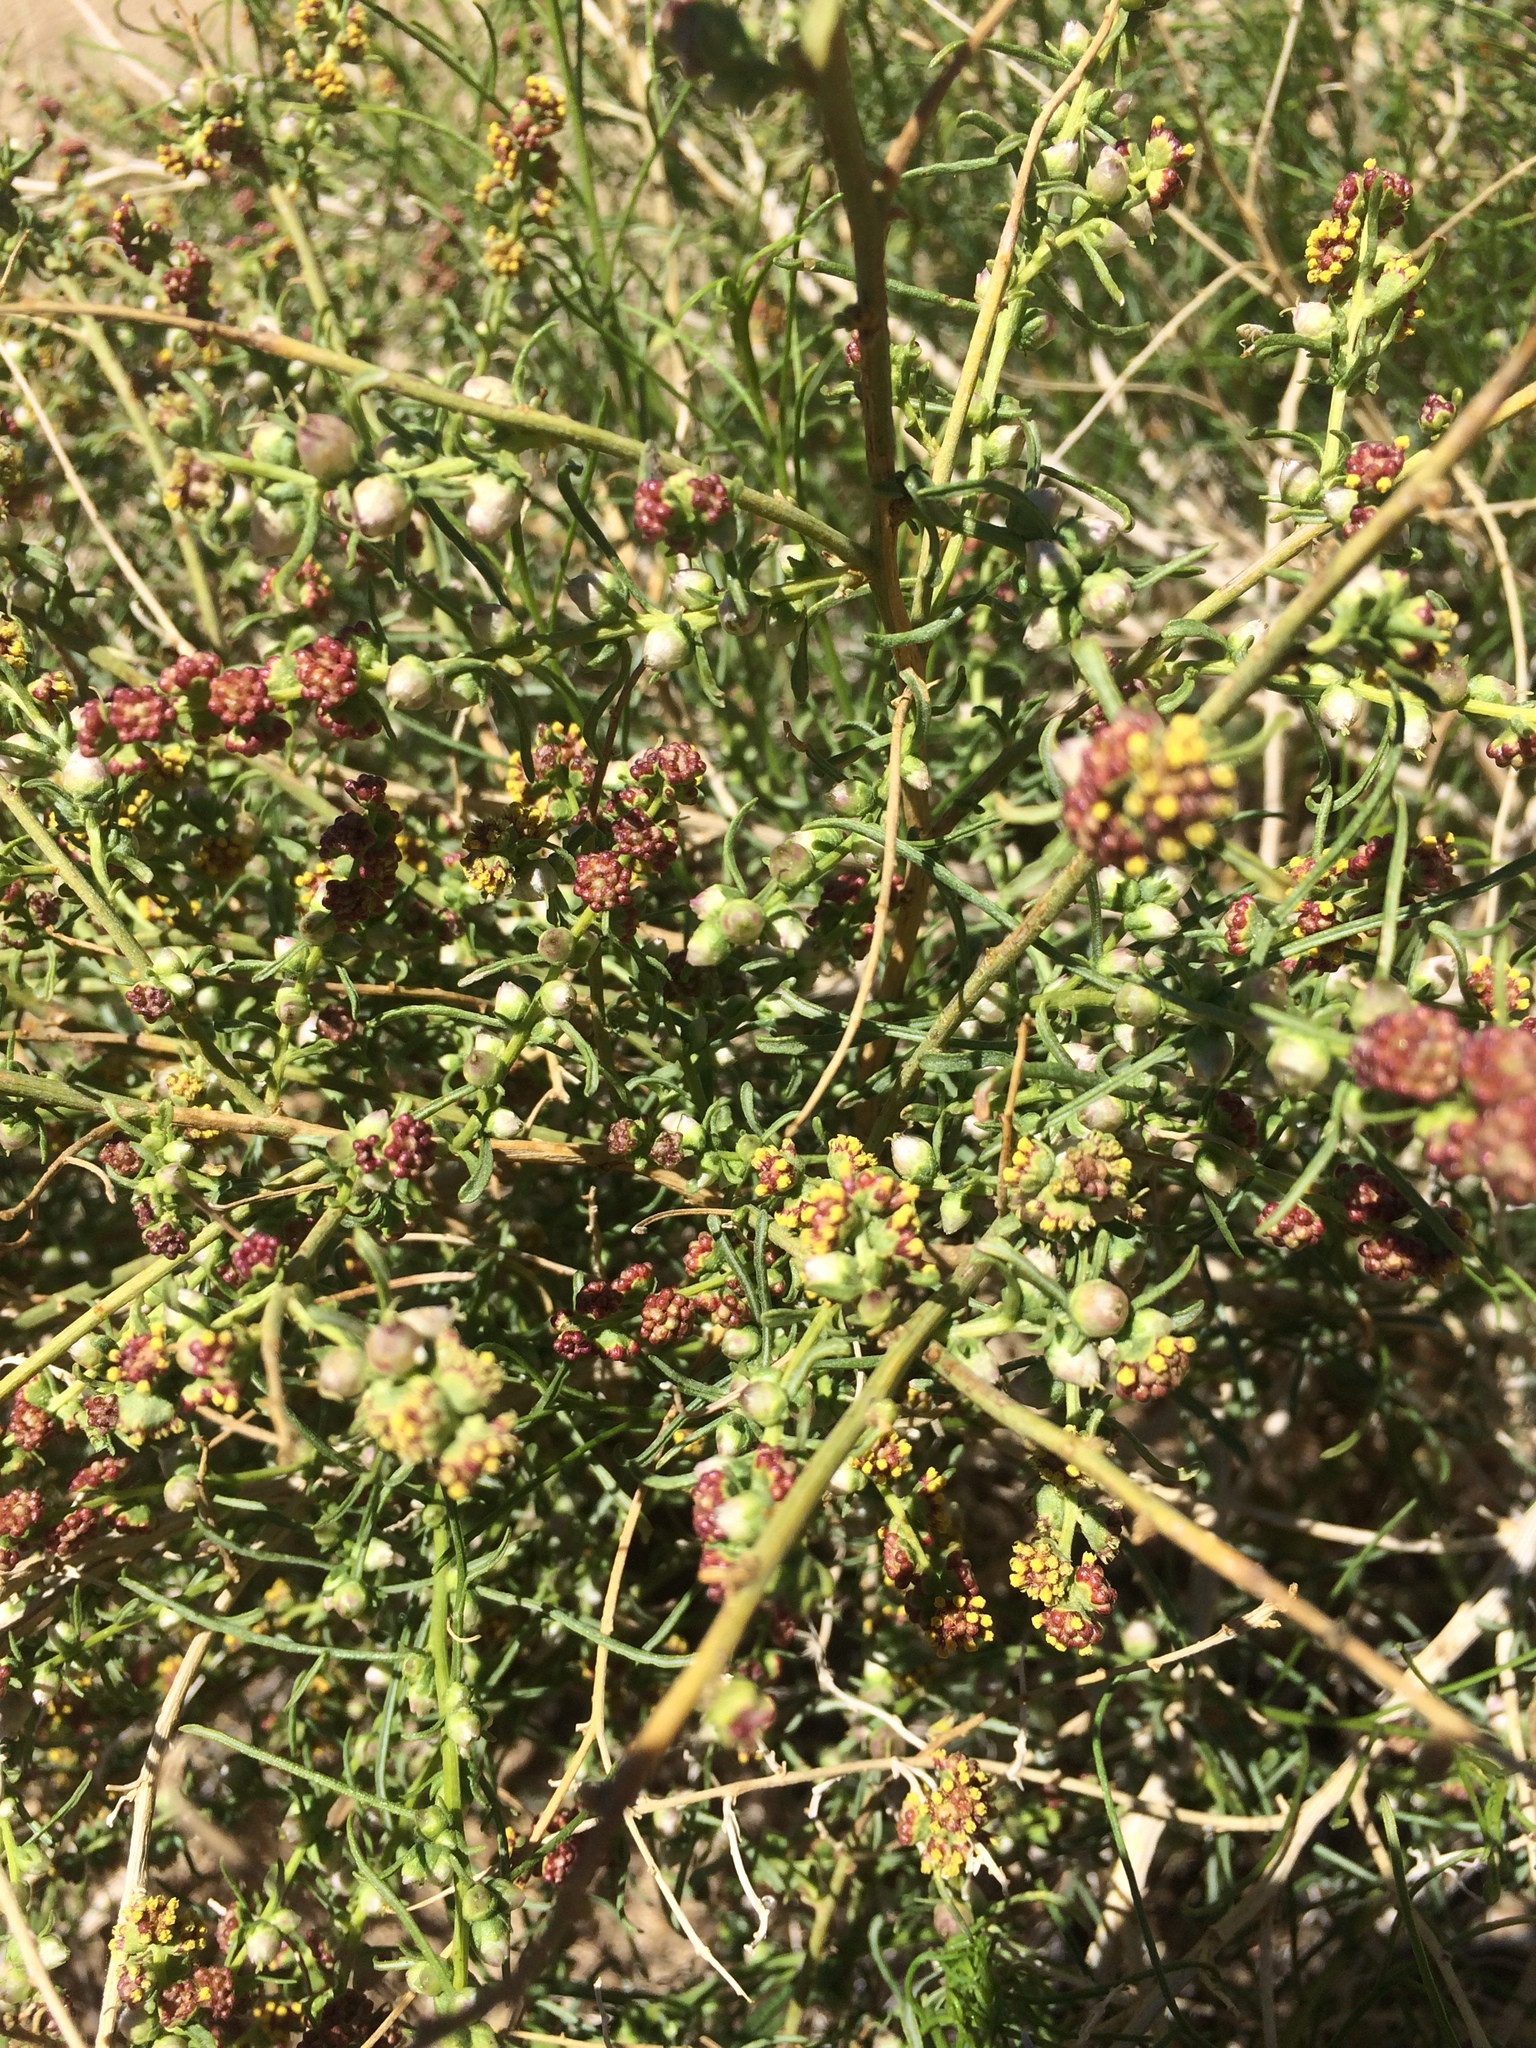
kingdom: Plantae
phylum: Tracheophyta
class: Magnoliopsida
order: Asterales
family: Asteraceae
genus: Ambrosia
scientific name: Ambrosia salsola
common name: Burrobrush
